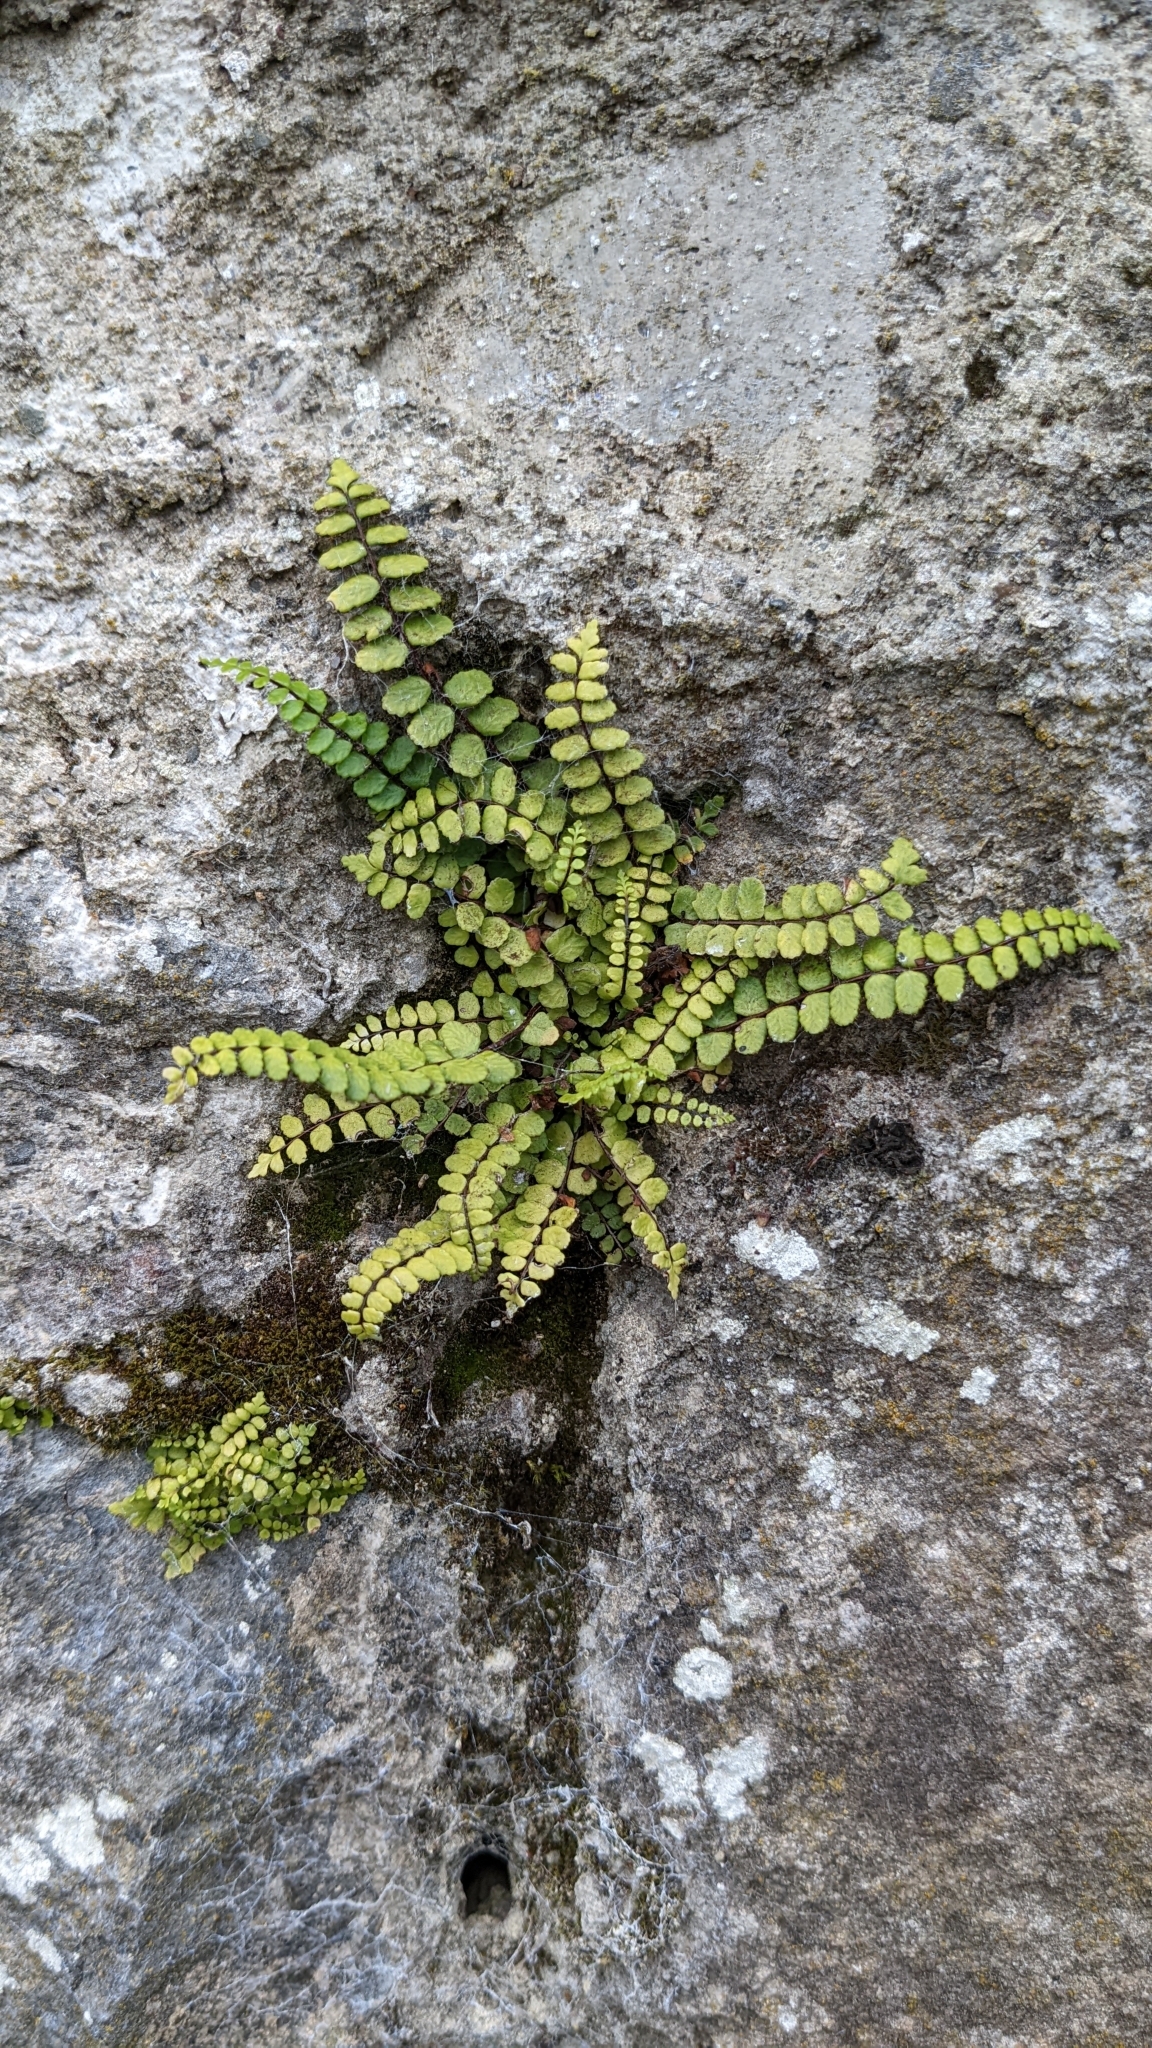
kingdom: Plantae
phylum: Tracheophyta
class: Polypodiopsida
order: Polypodiales
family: Aspleniaceae
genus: Asplenium
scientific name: Asplenium trichomanes
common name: Maidenhair spleenwort
